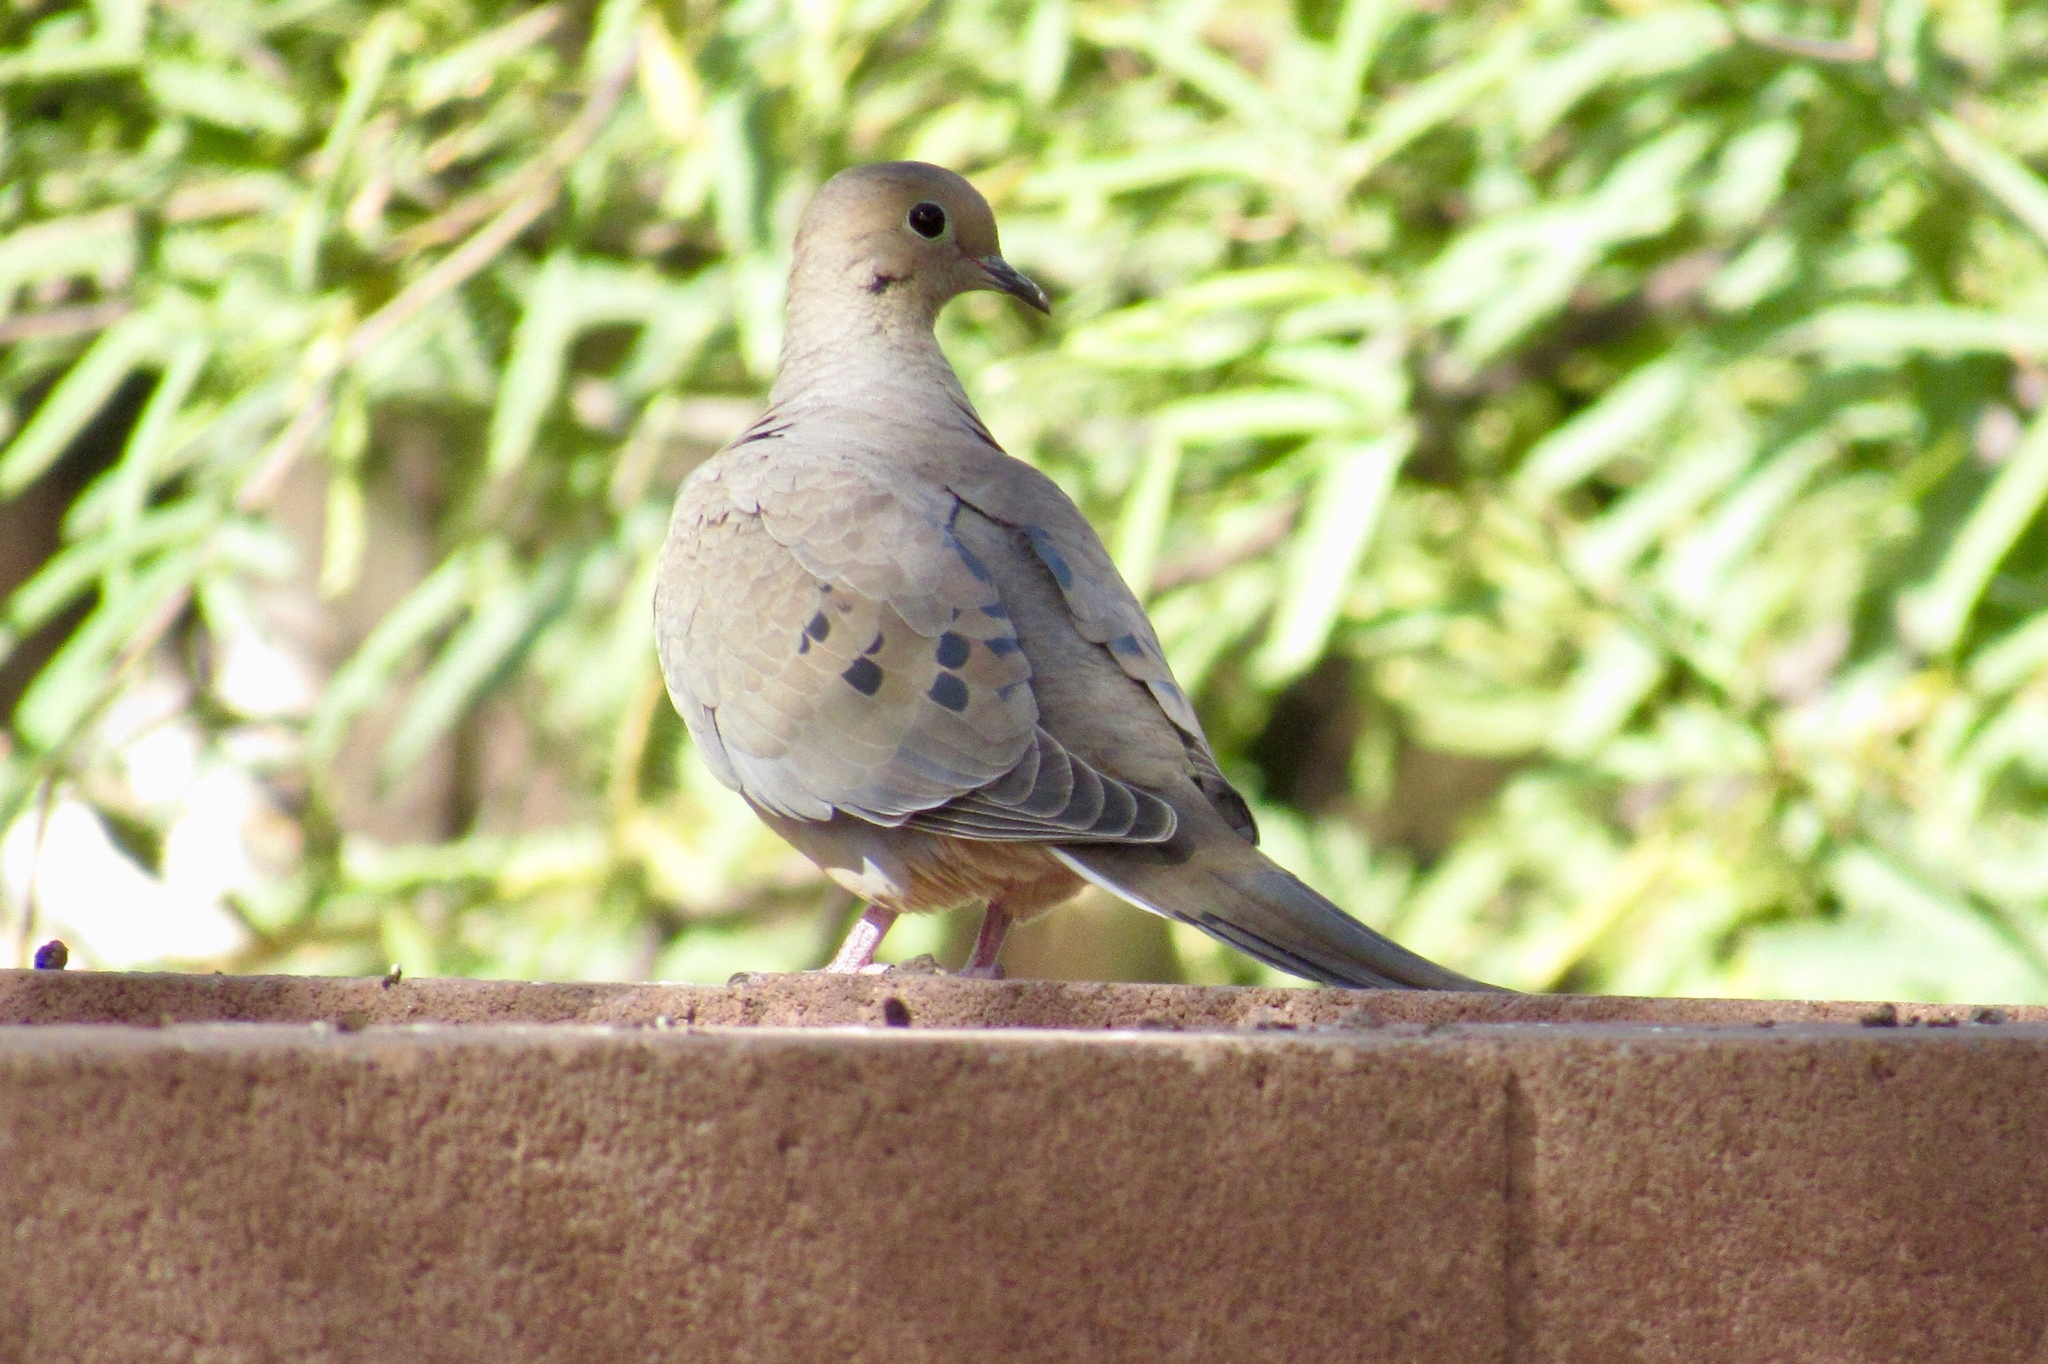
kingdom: Animalia
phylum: Chordata
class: Aves
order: Columbiformes
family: Columbidae
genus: Zenaida
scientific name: Zenaida macroura
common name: Mourning dove
